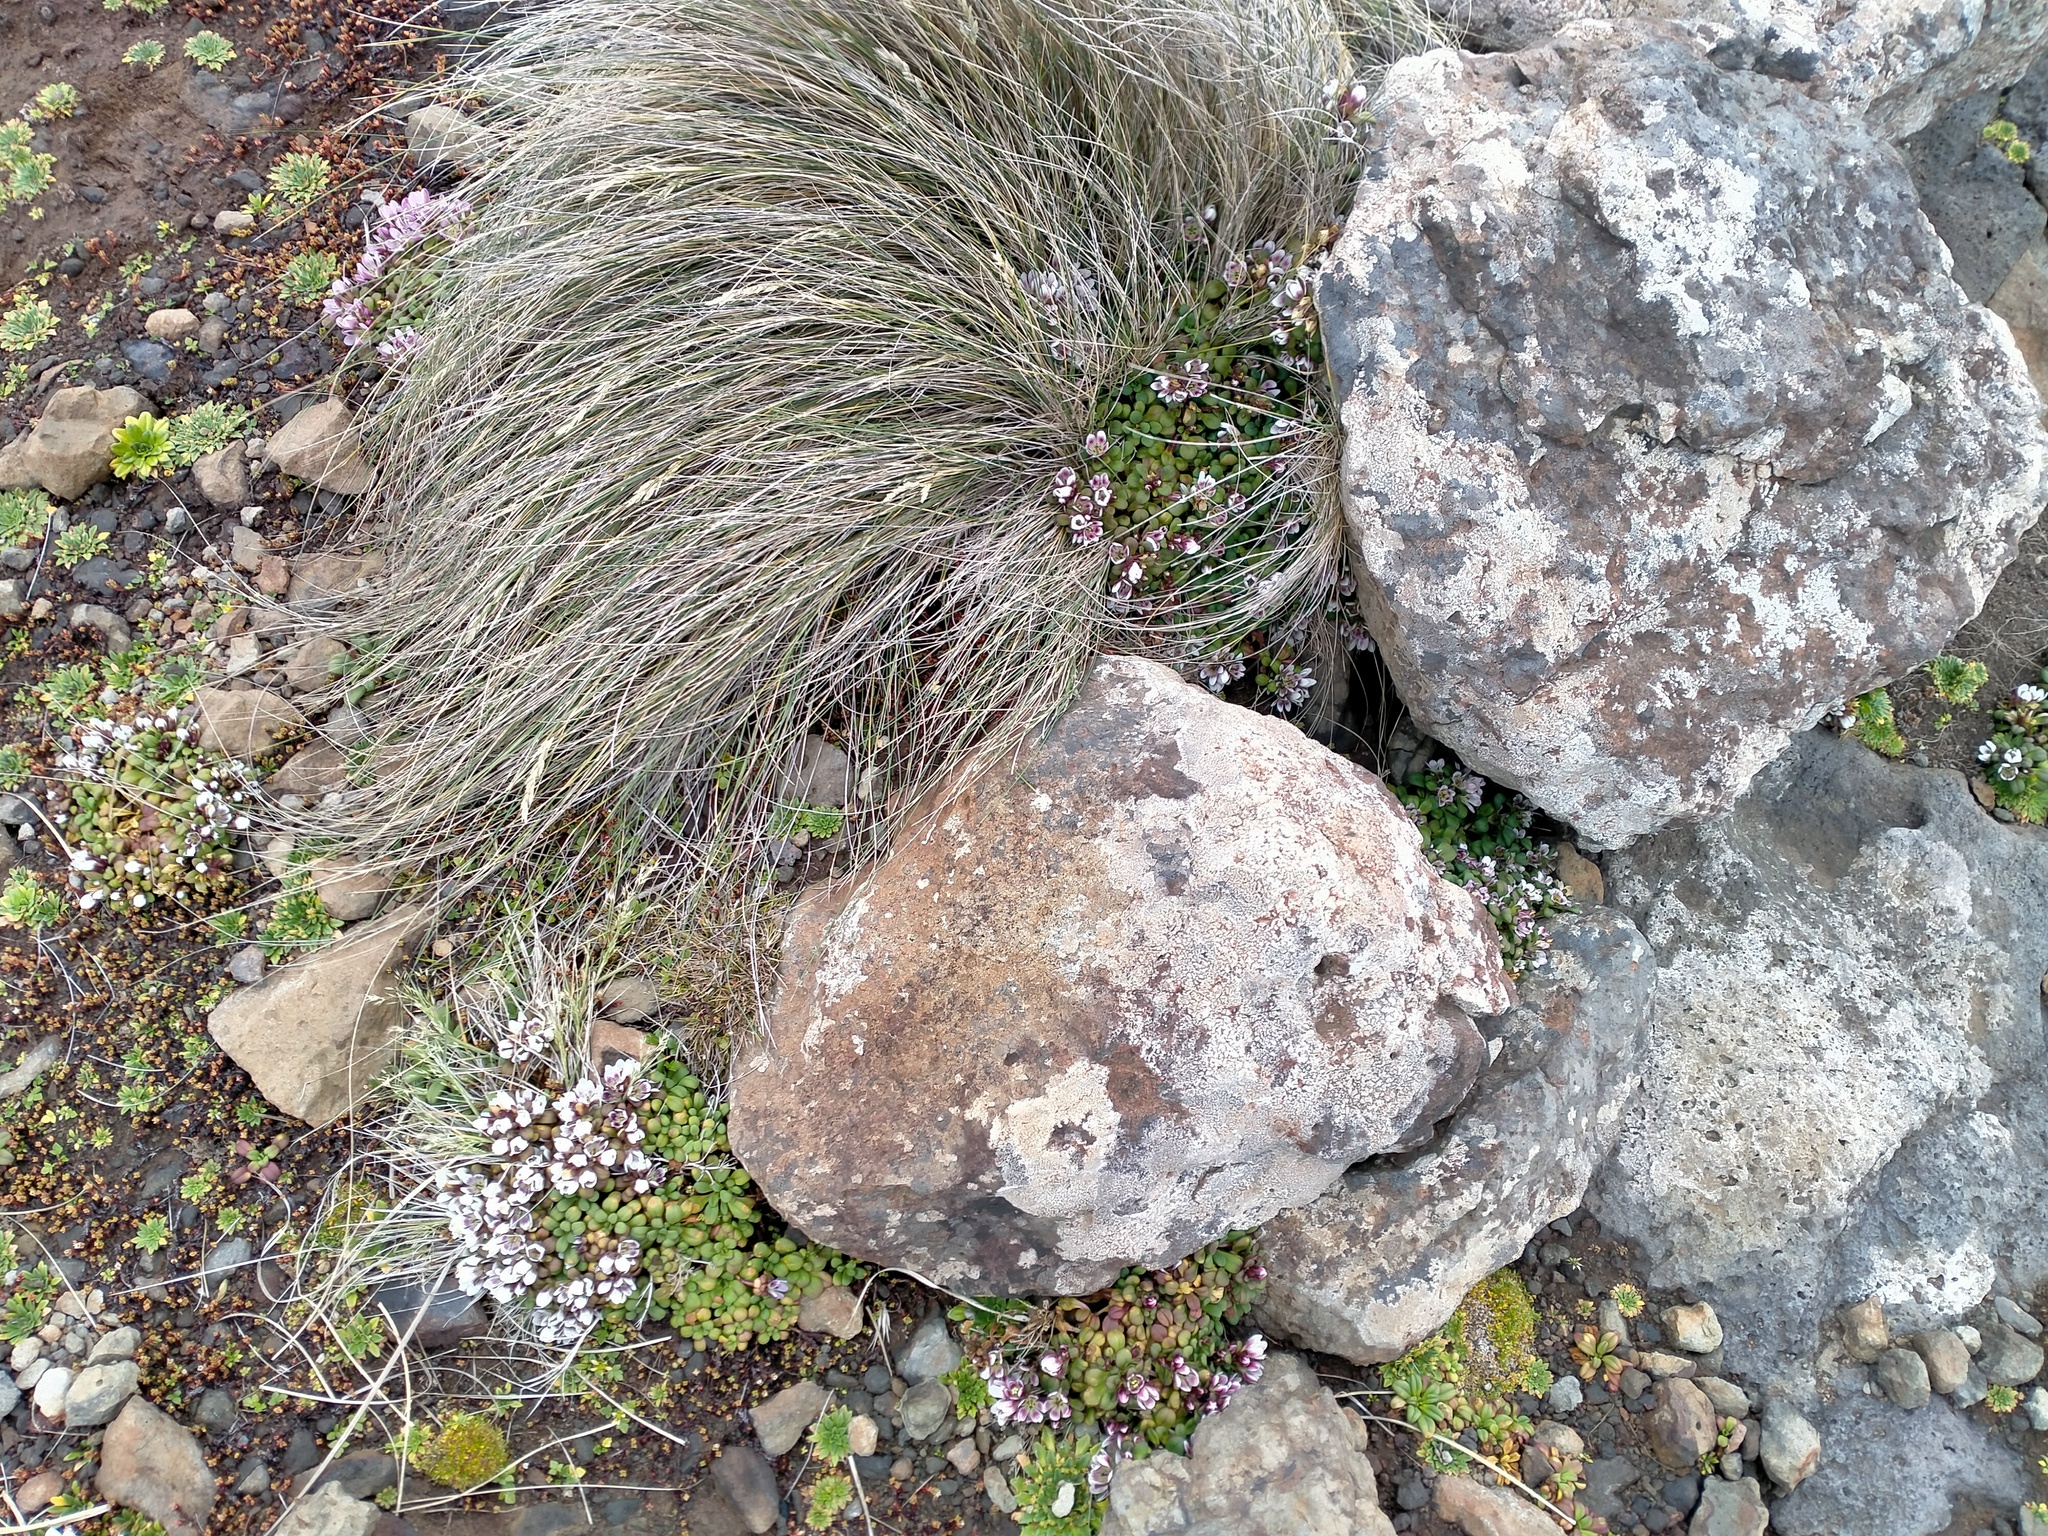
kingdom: Plantae
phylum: Tracheophyta
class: Magnoliopsida
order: Gentianales
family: Gentianaceae
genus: Gentianella
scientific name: Gentianella cerina
